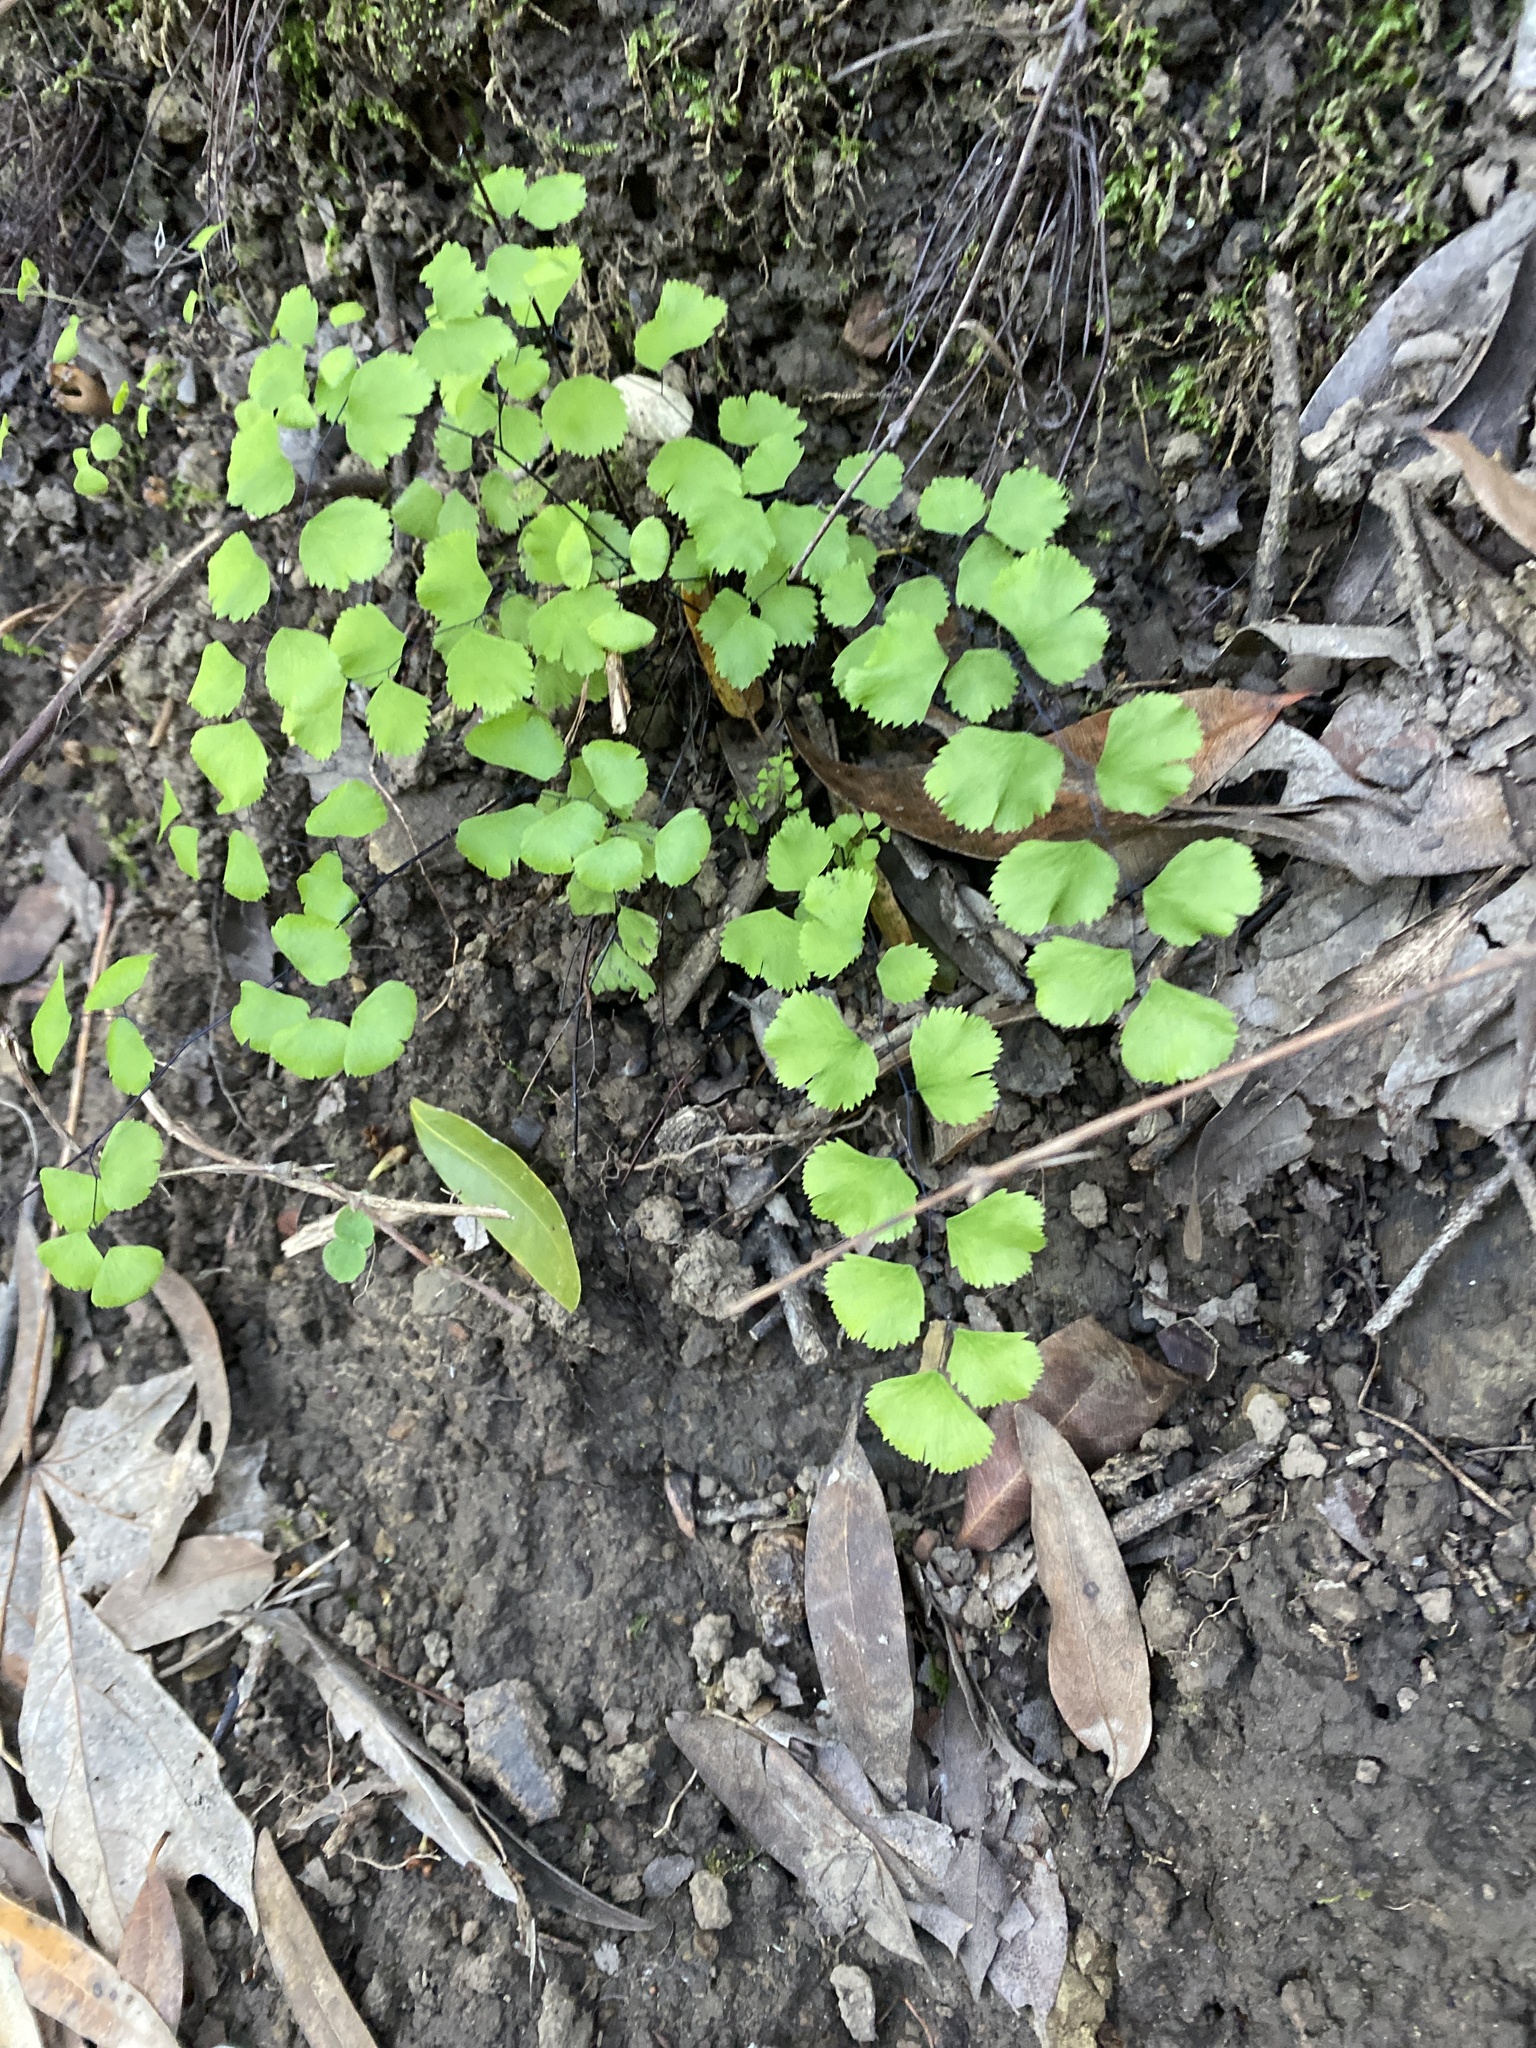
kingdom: Plantae
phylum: Tracheophyta
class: Polypodiopsida
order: Polypodiales
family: Pteridaceae
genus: Adiantum
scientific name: Adiantum jordanii
